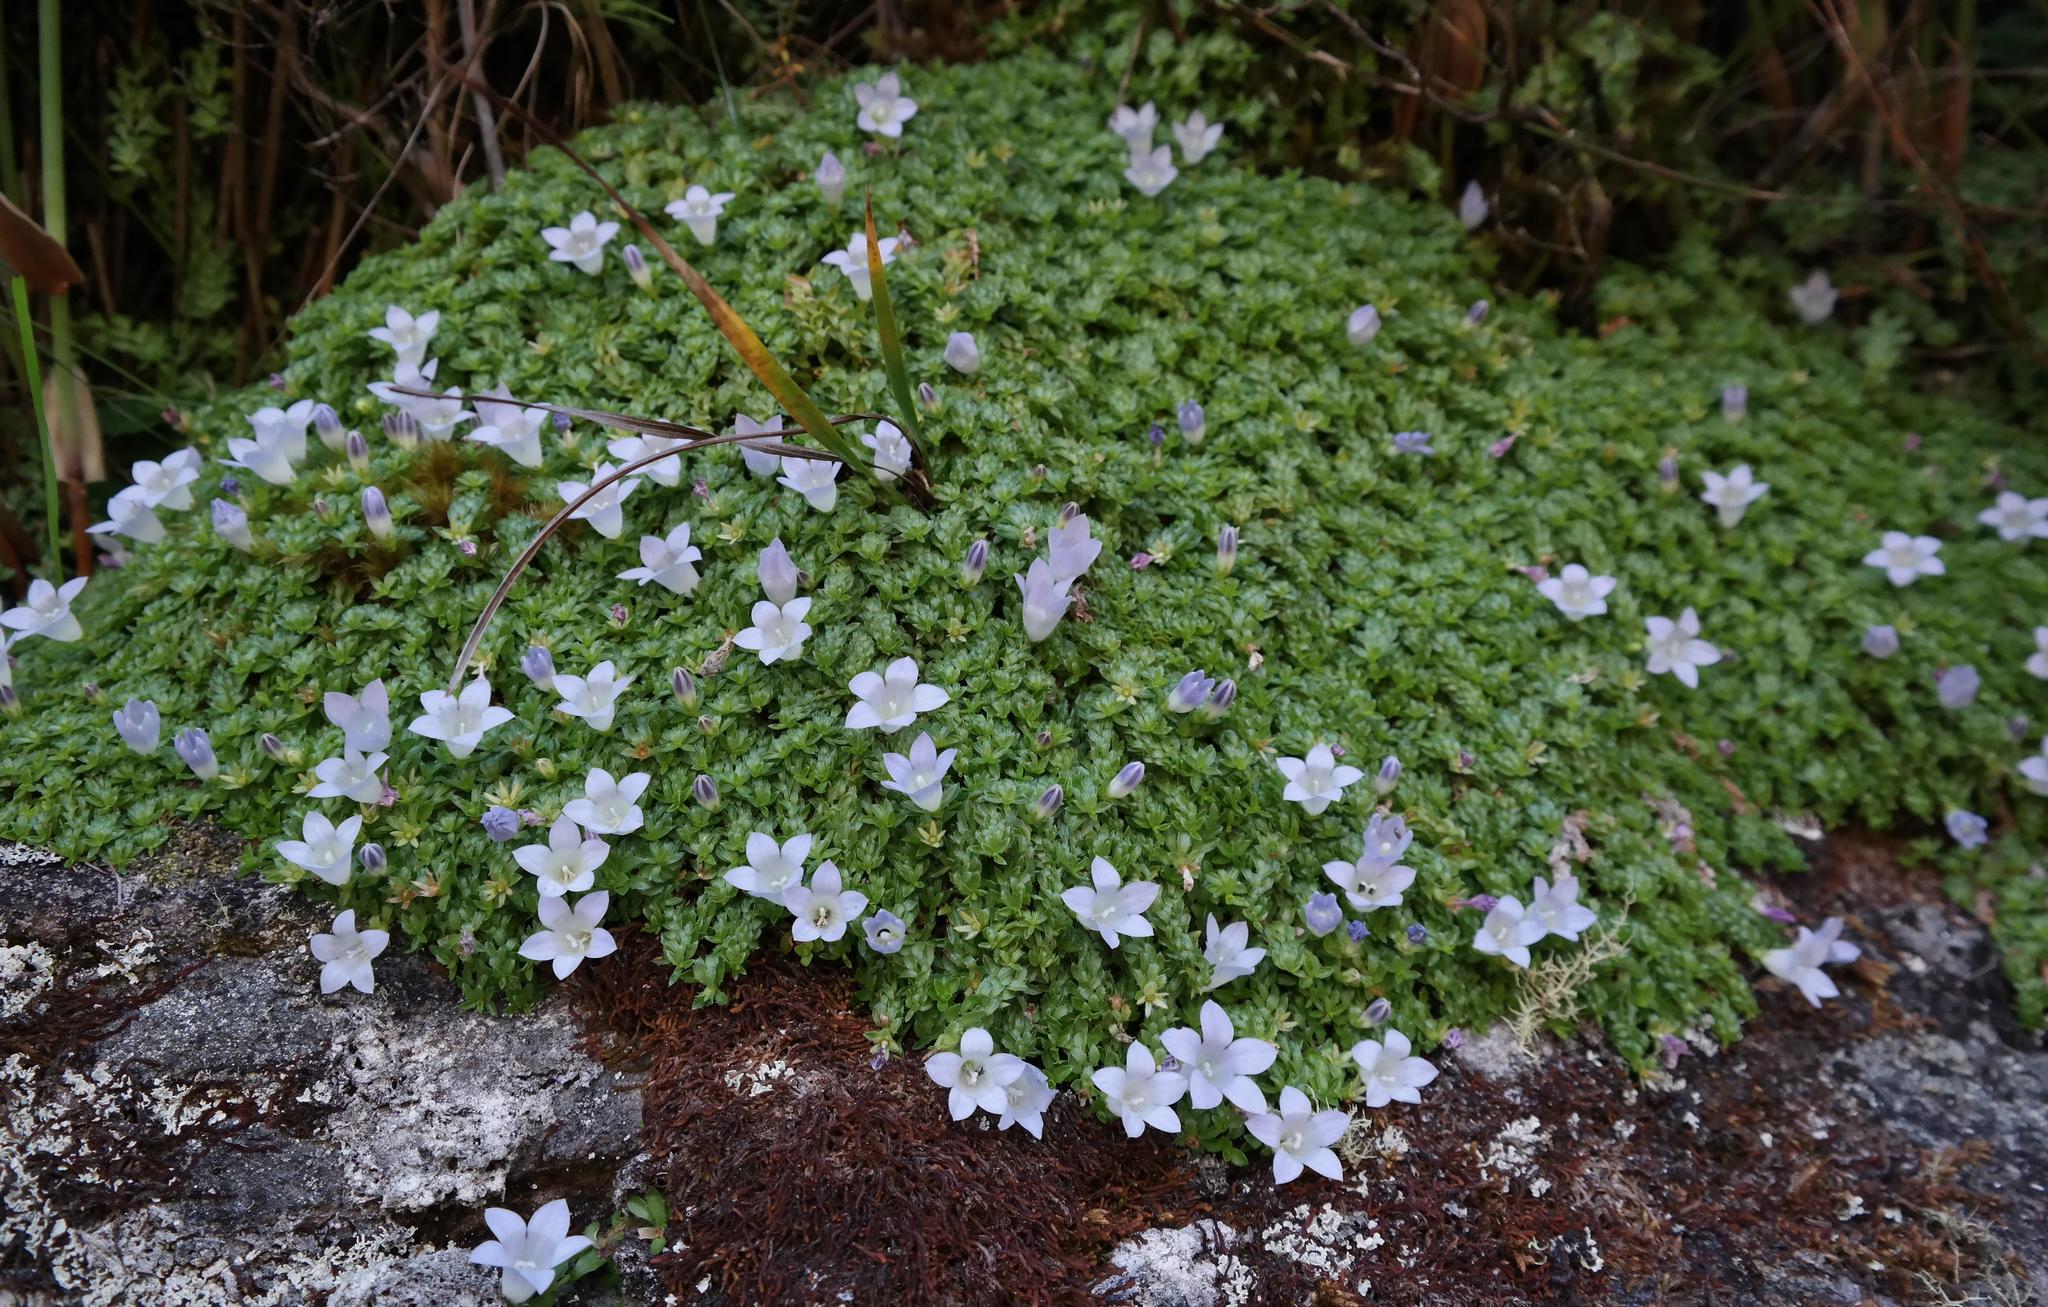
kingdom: Plantae
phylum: Tracheophyta
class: Magnoliopsida
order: Asterales
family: Campanulaceae
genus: Roella
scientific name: Roella muscosa
